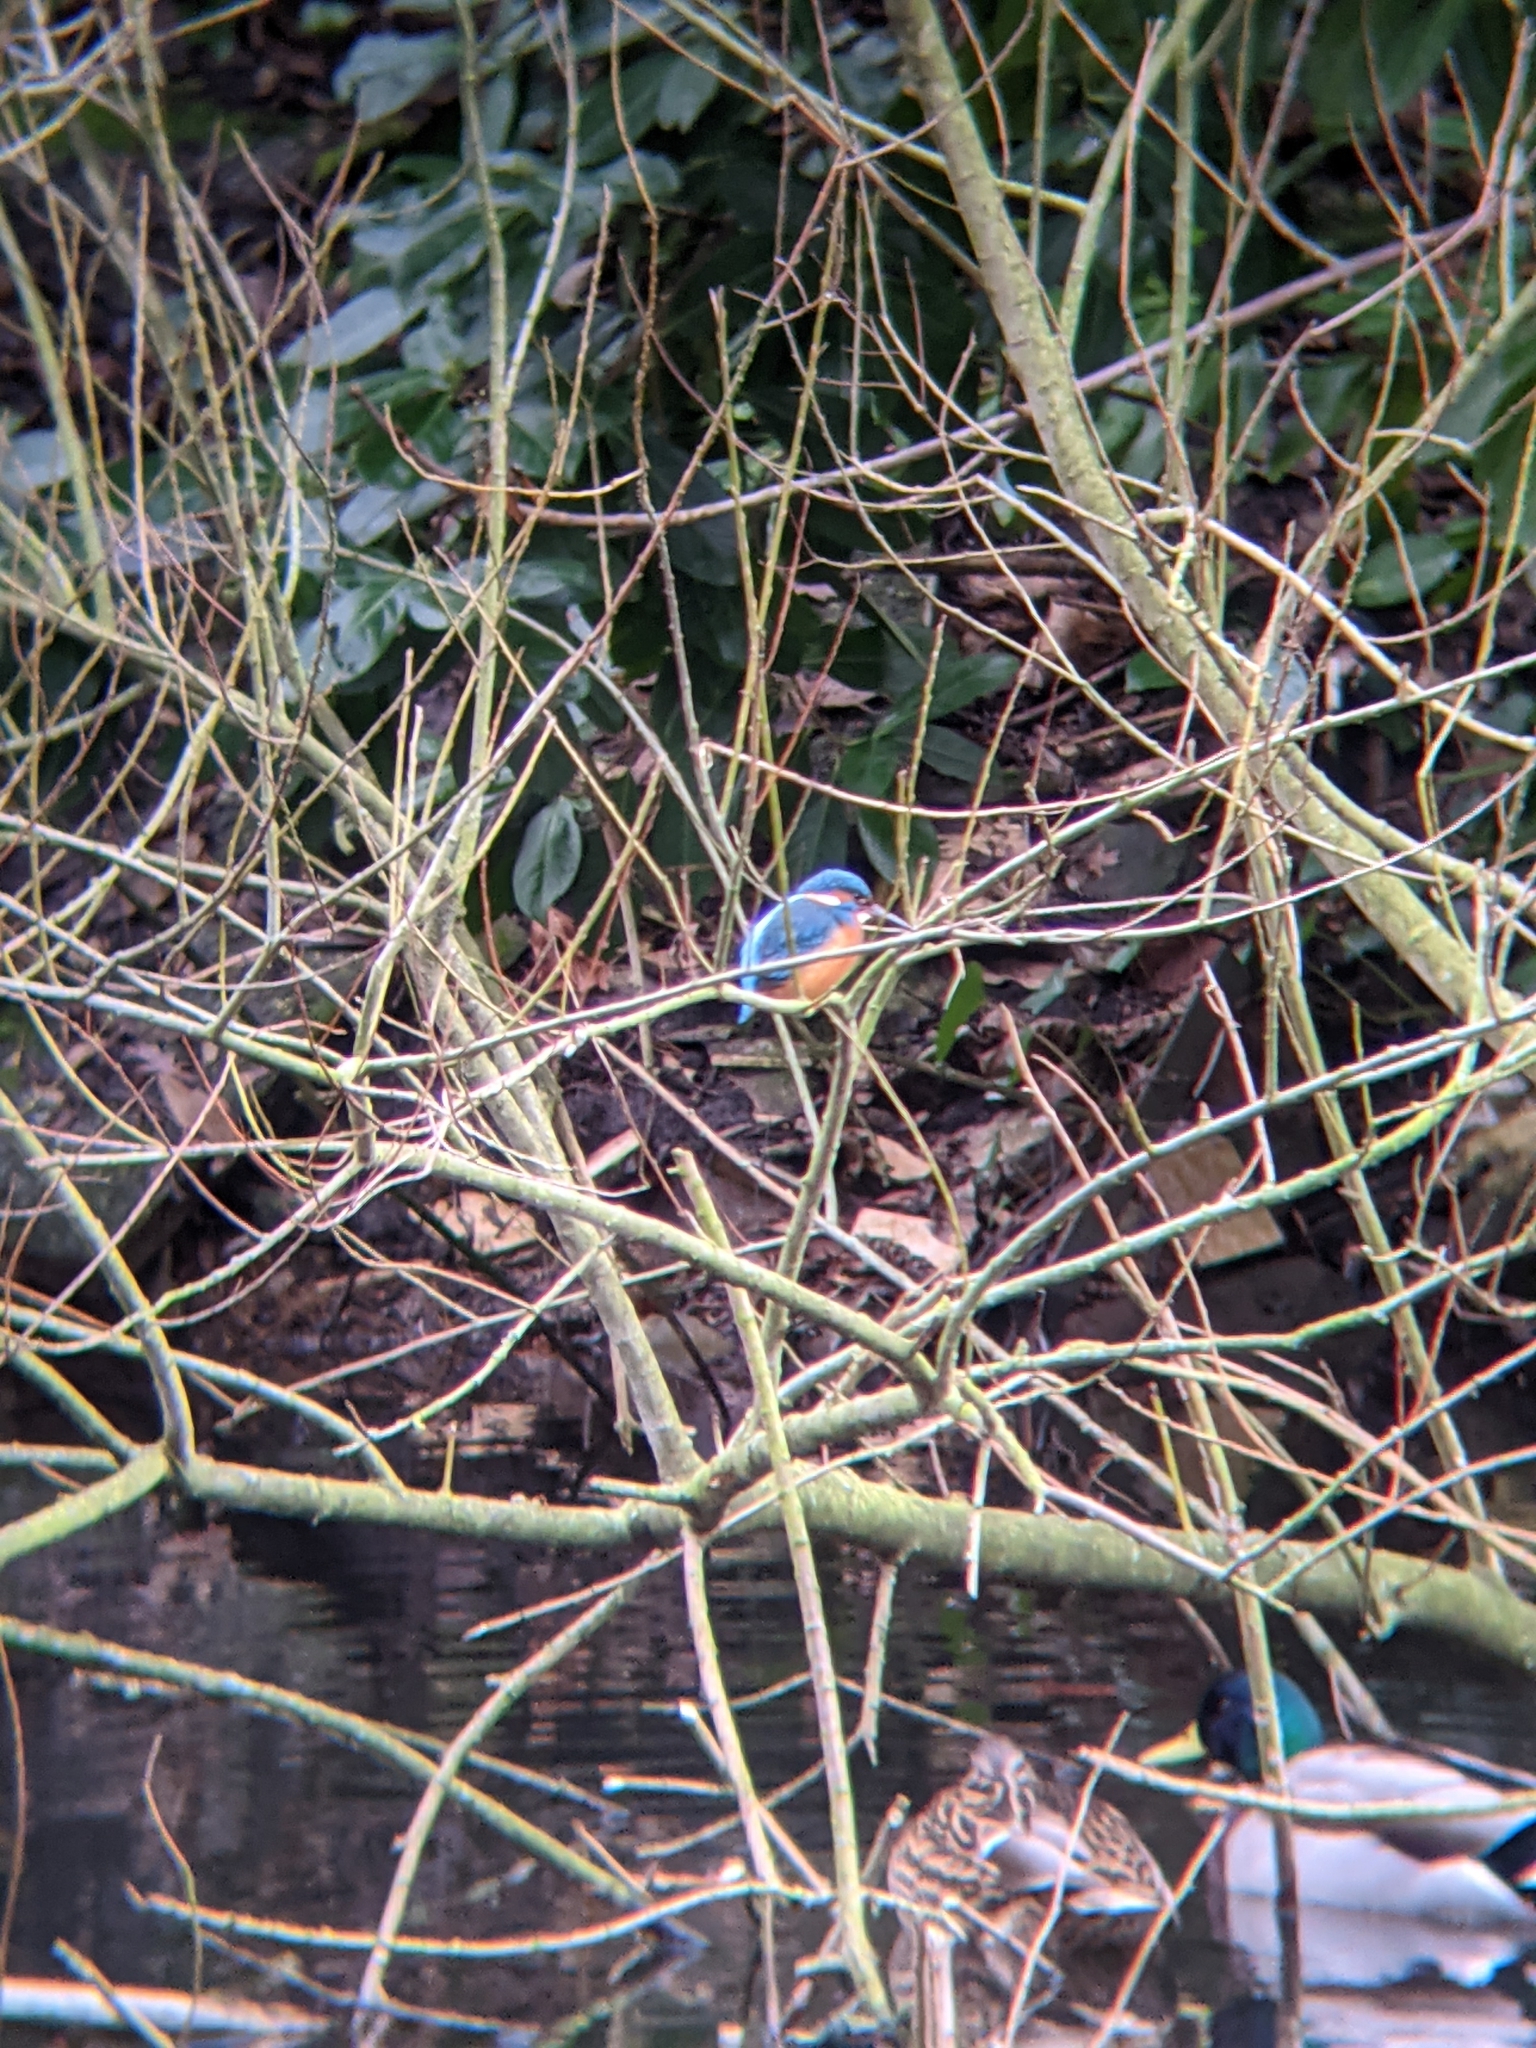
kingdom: Animalia
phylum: Chordata
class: Aves
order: Coraciiformes
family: Alcedinidae
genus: Alcedo
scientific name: Alcedo atthis
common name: Common kingfisher
